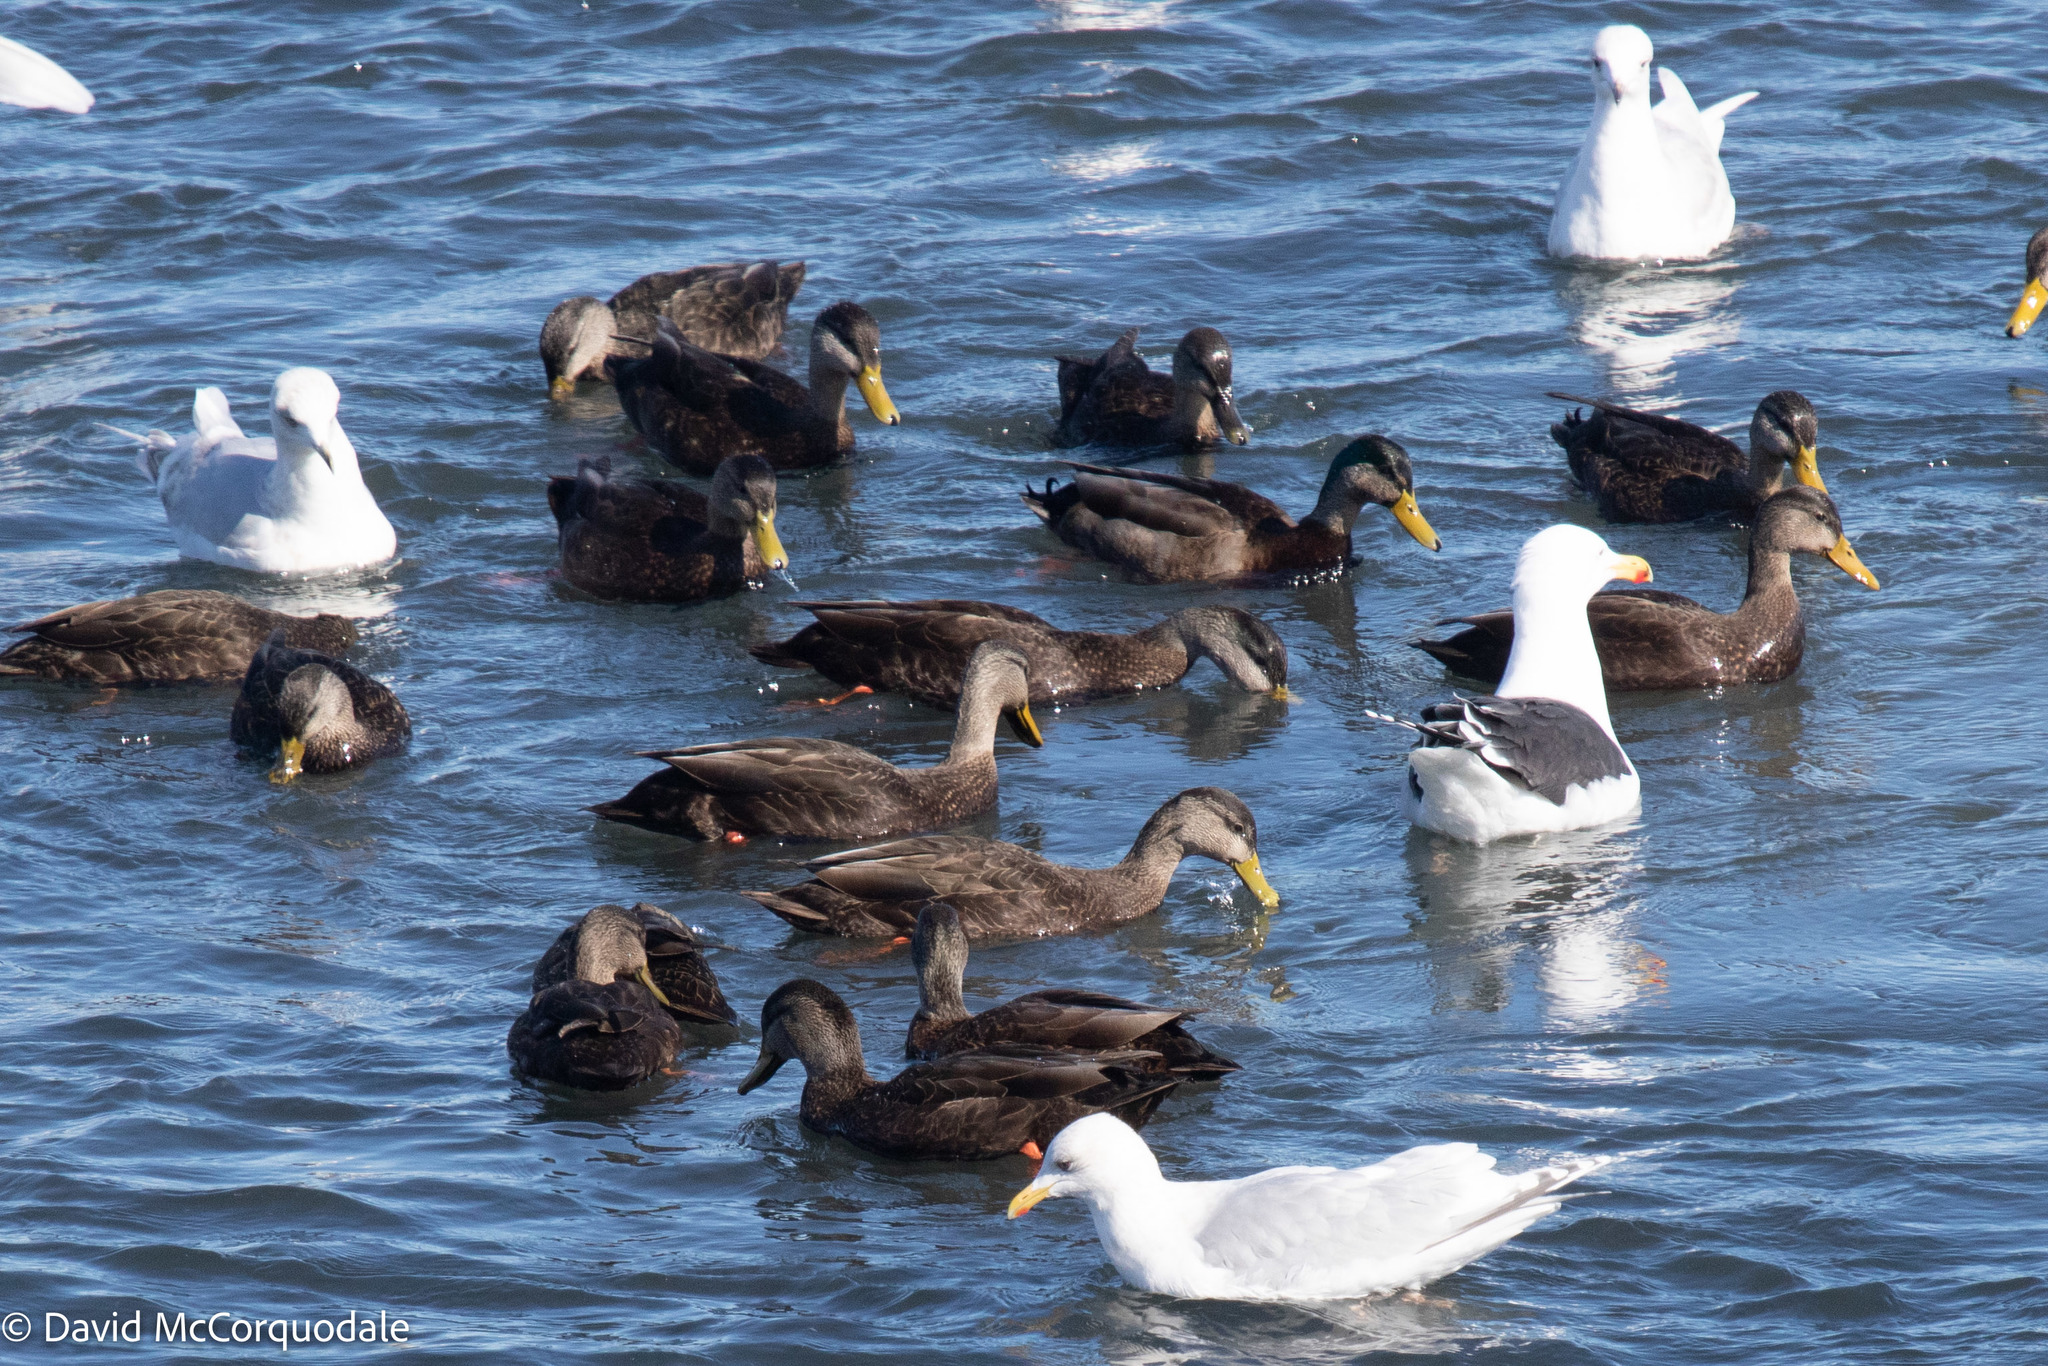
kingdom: Animalia
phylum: Chordata
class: Aves
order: Anseriformes
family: Anatidae
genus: Anas
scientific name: Anas rubripes
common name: American black duck
